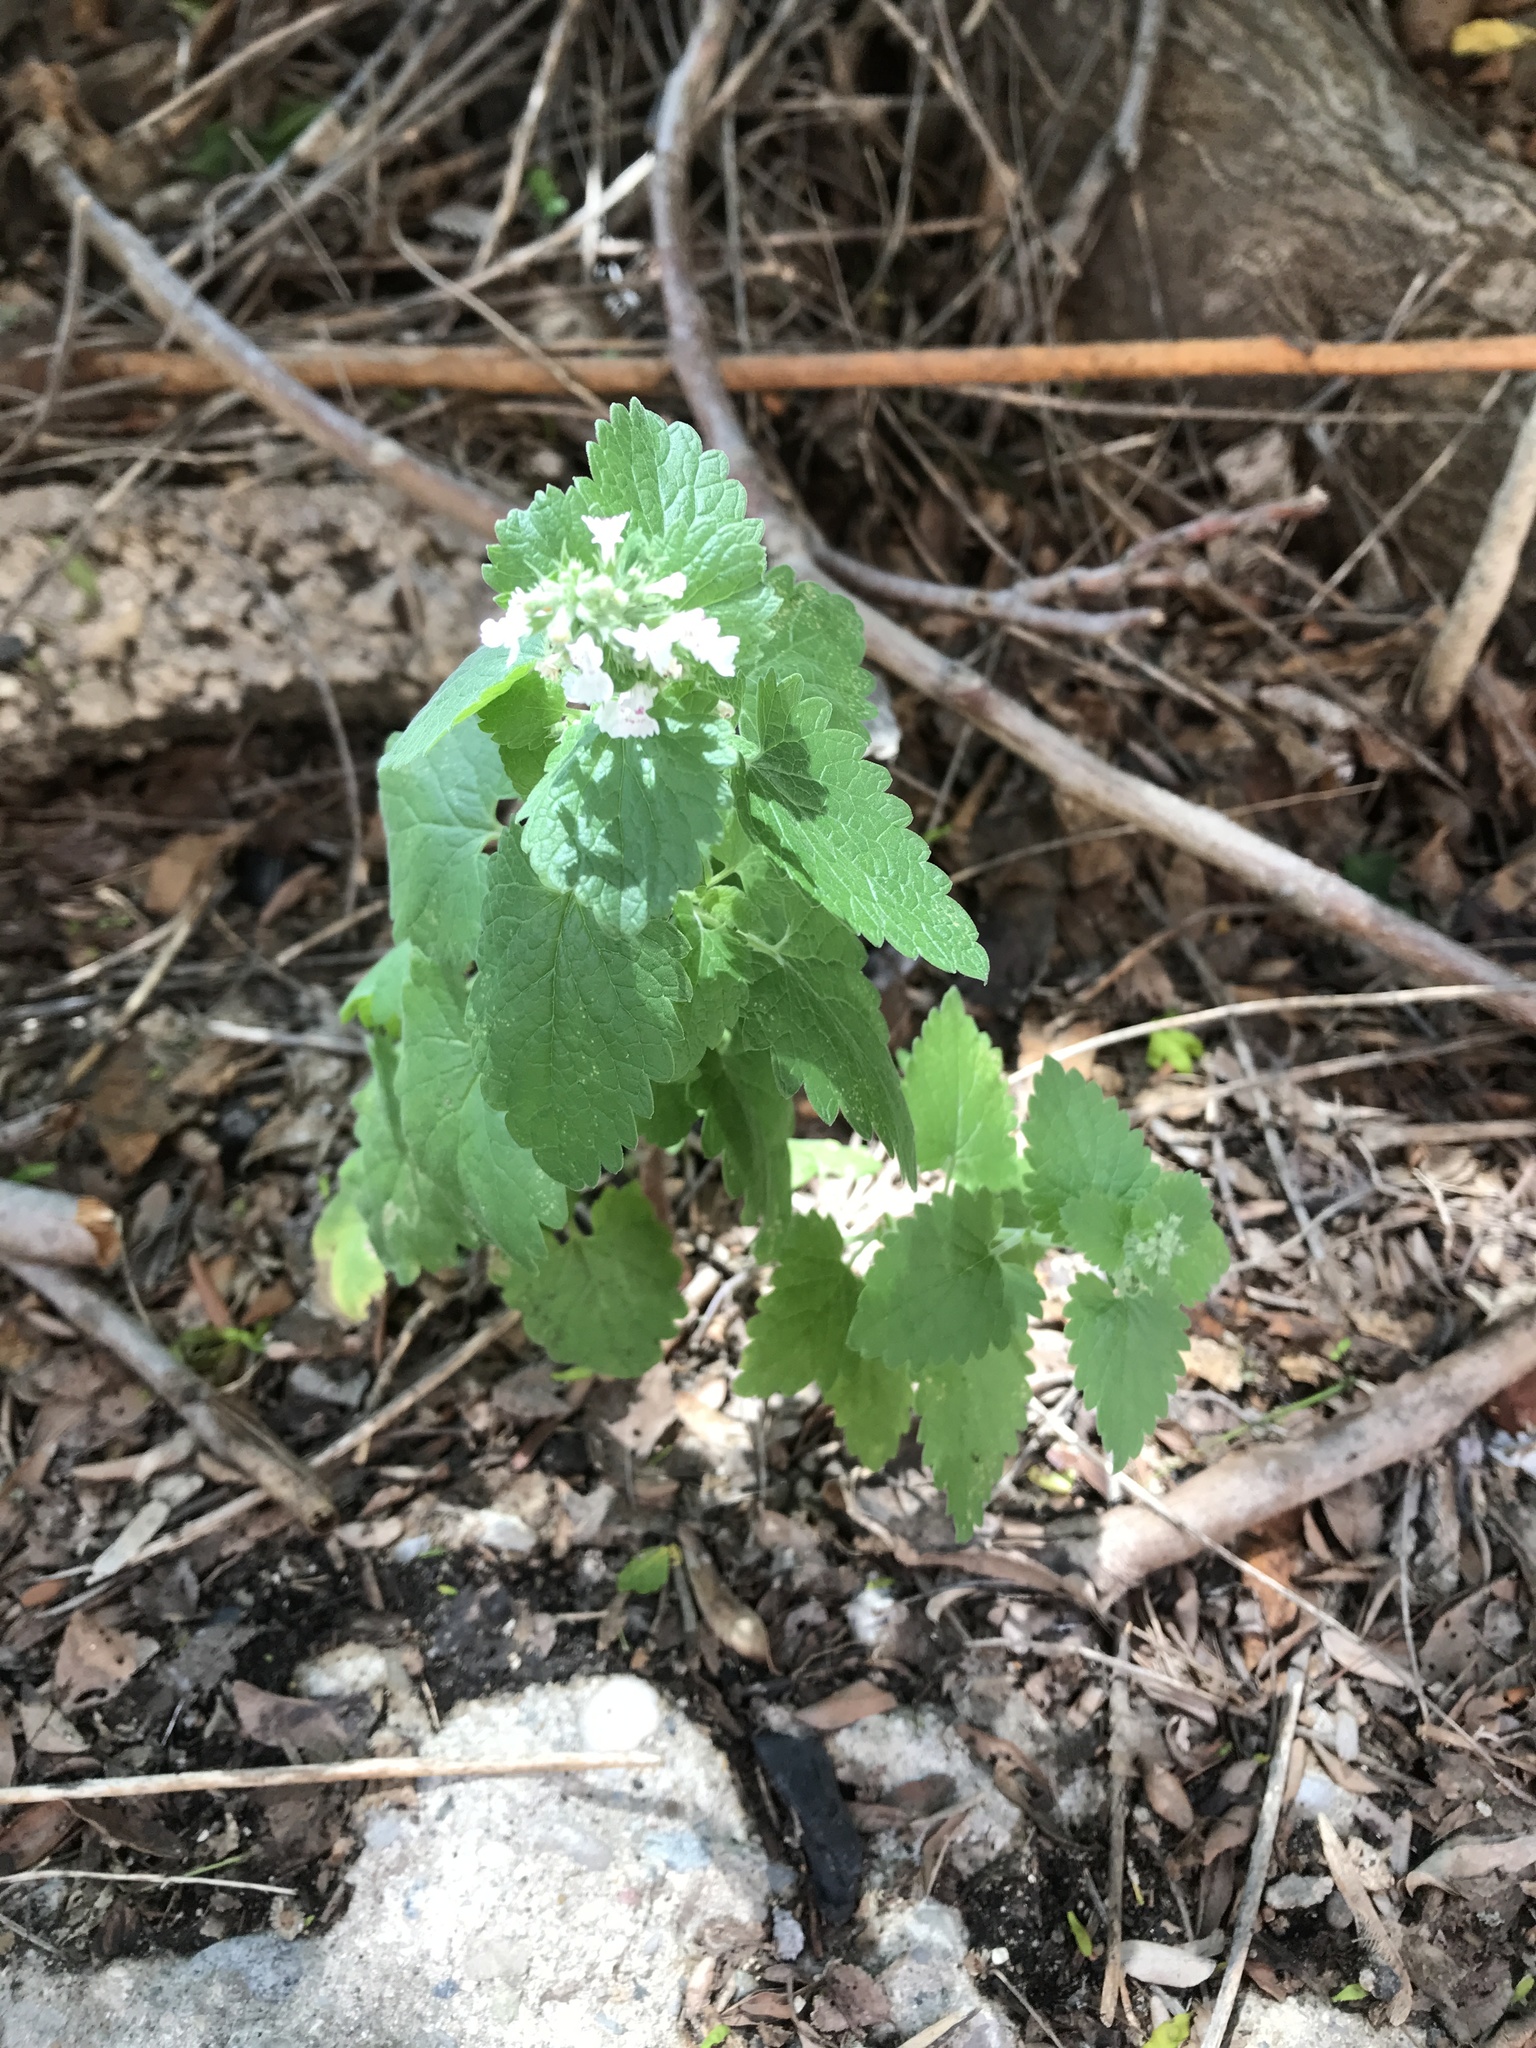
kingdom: Plantae
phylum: Tracheophyta
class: Magnoliopsida
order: Lamiales
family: Lamiaceae
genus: Nepeta
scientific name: Nepeta cataria
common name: Catnip
